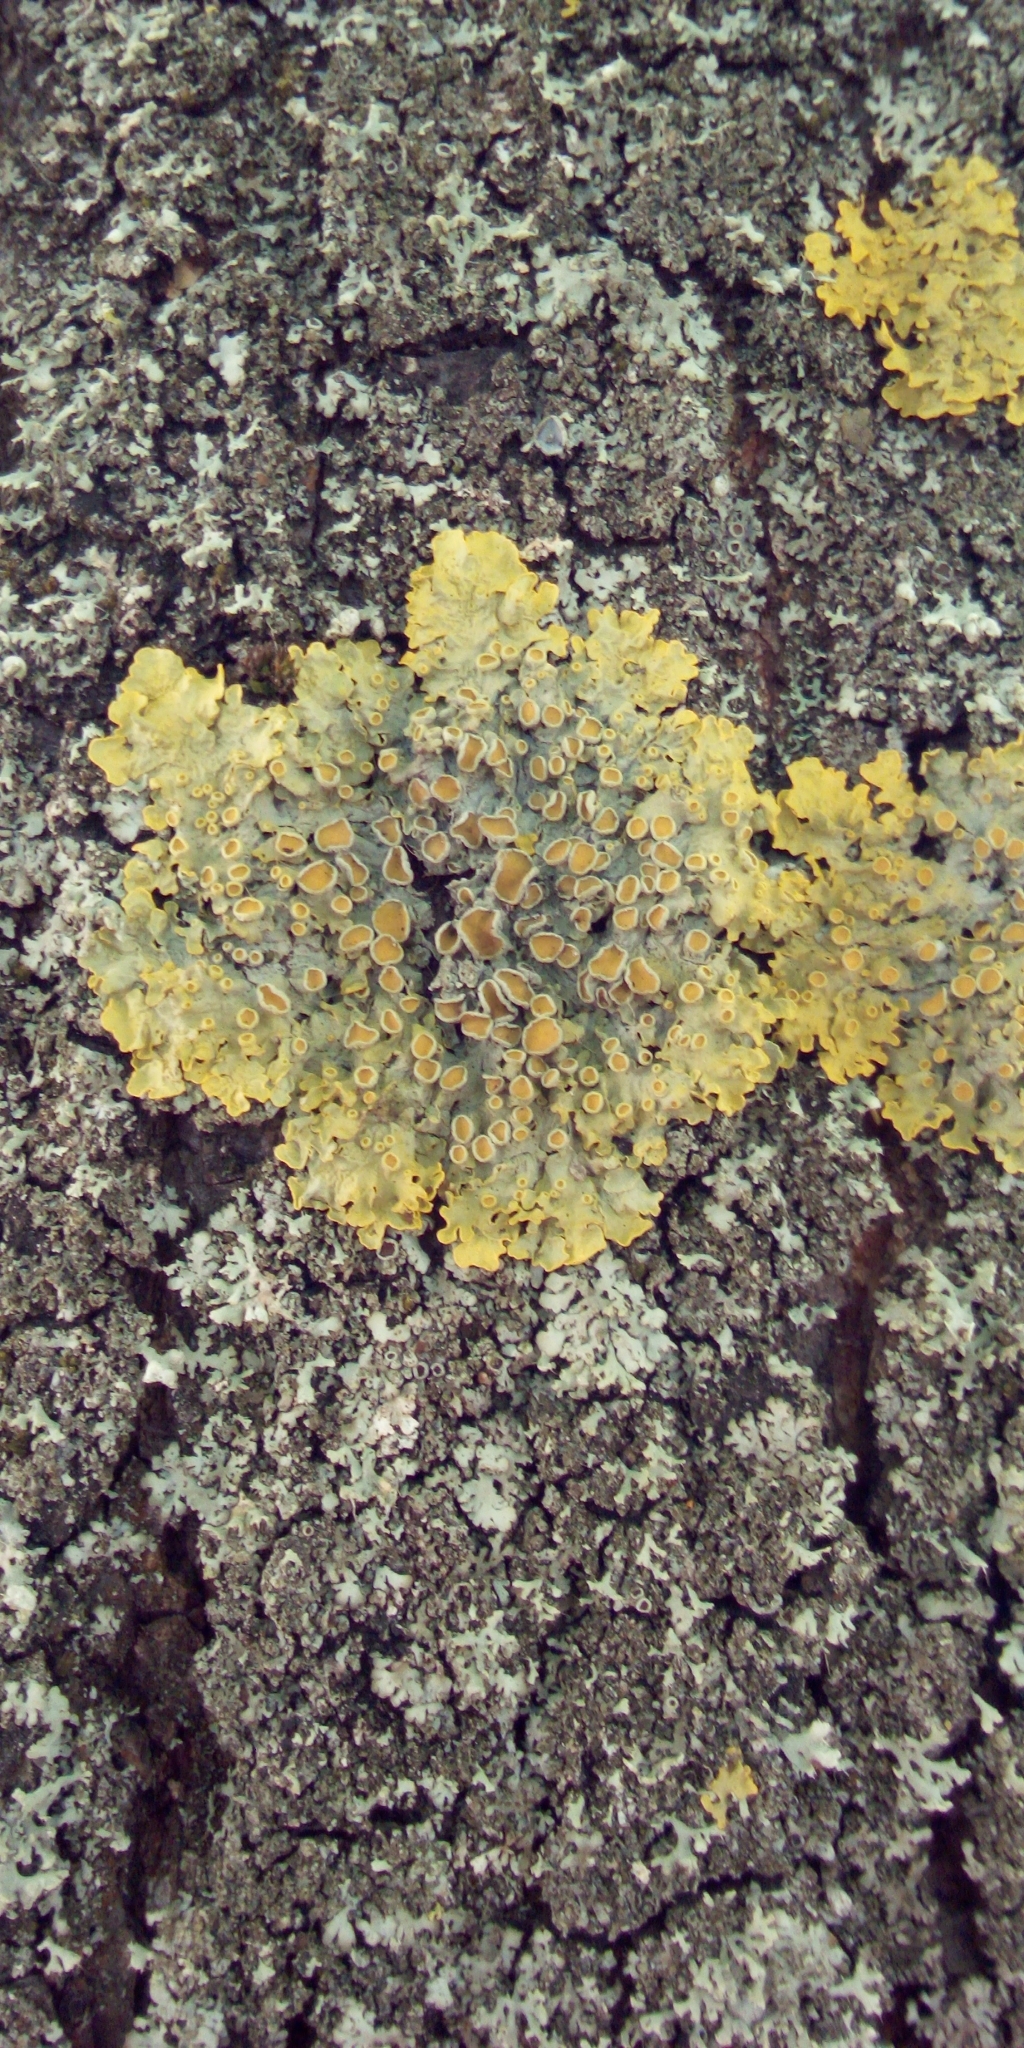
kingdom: Fungi
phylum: Ascomycota
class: Lecanoromycetes
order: Teloschistales
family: Teloschistaceae
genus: Xanthoria
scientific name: Xanthoria parietina
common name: Common orange lichen
